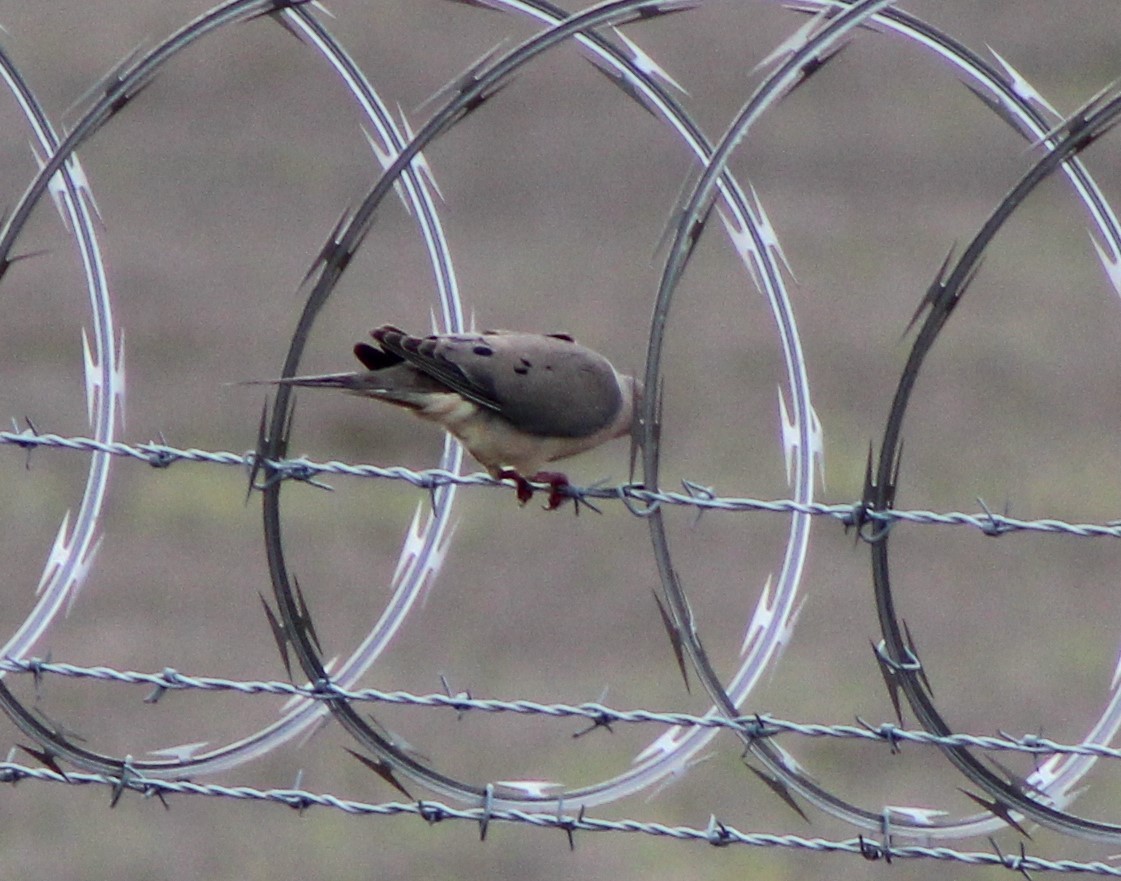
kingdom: Animalia
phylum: Chordata
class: Aves
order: Columbiformes
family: Columbidae
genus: Zenaida
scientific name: Zenaida macroura
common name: Mourning dove
